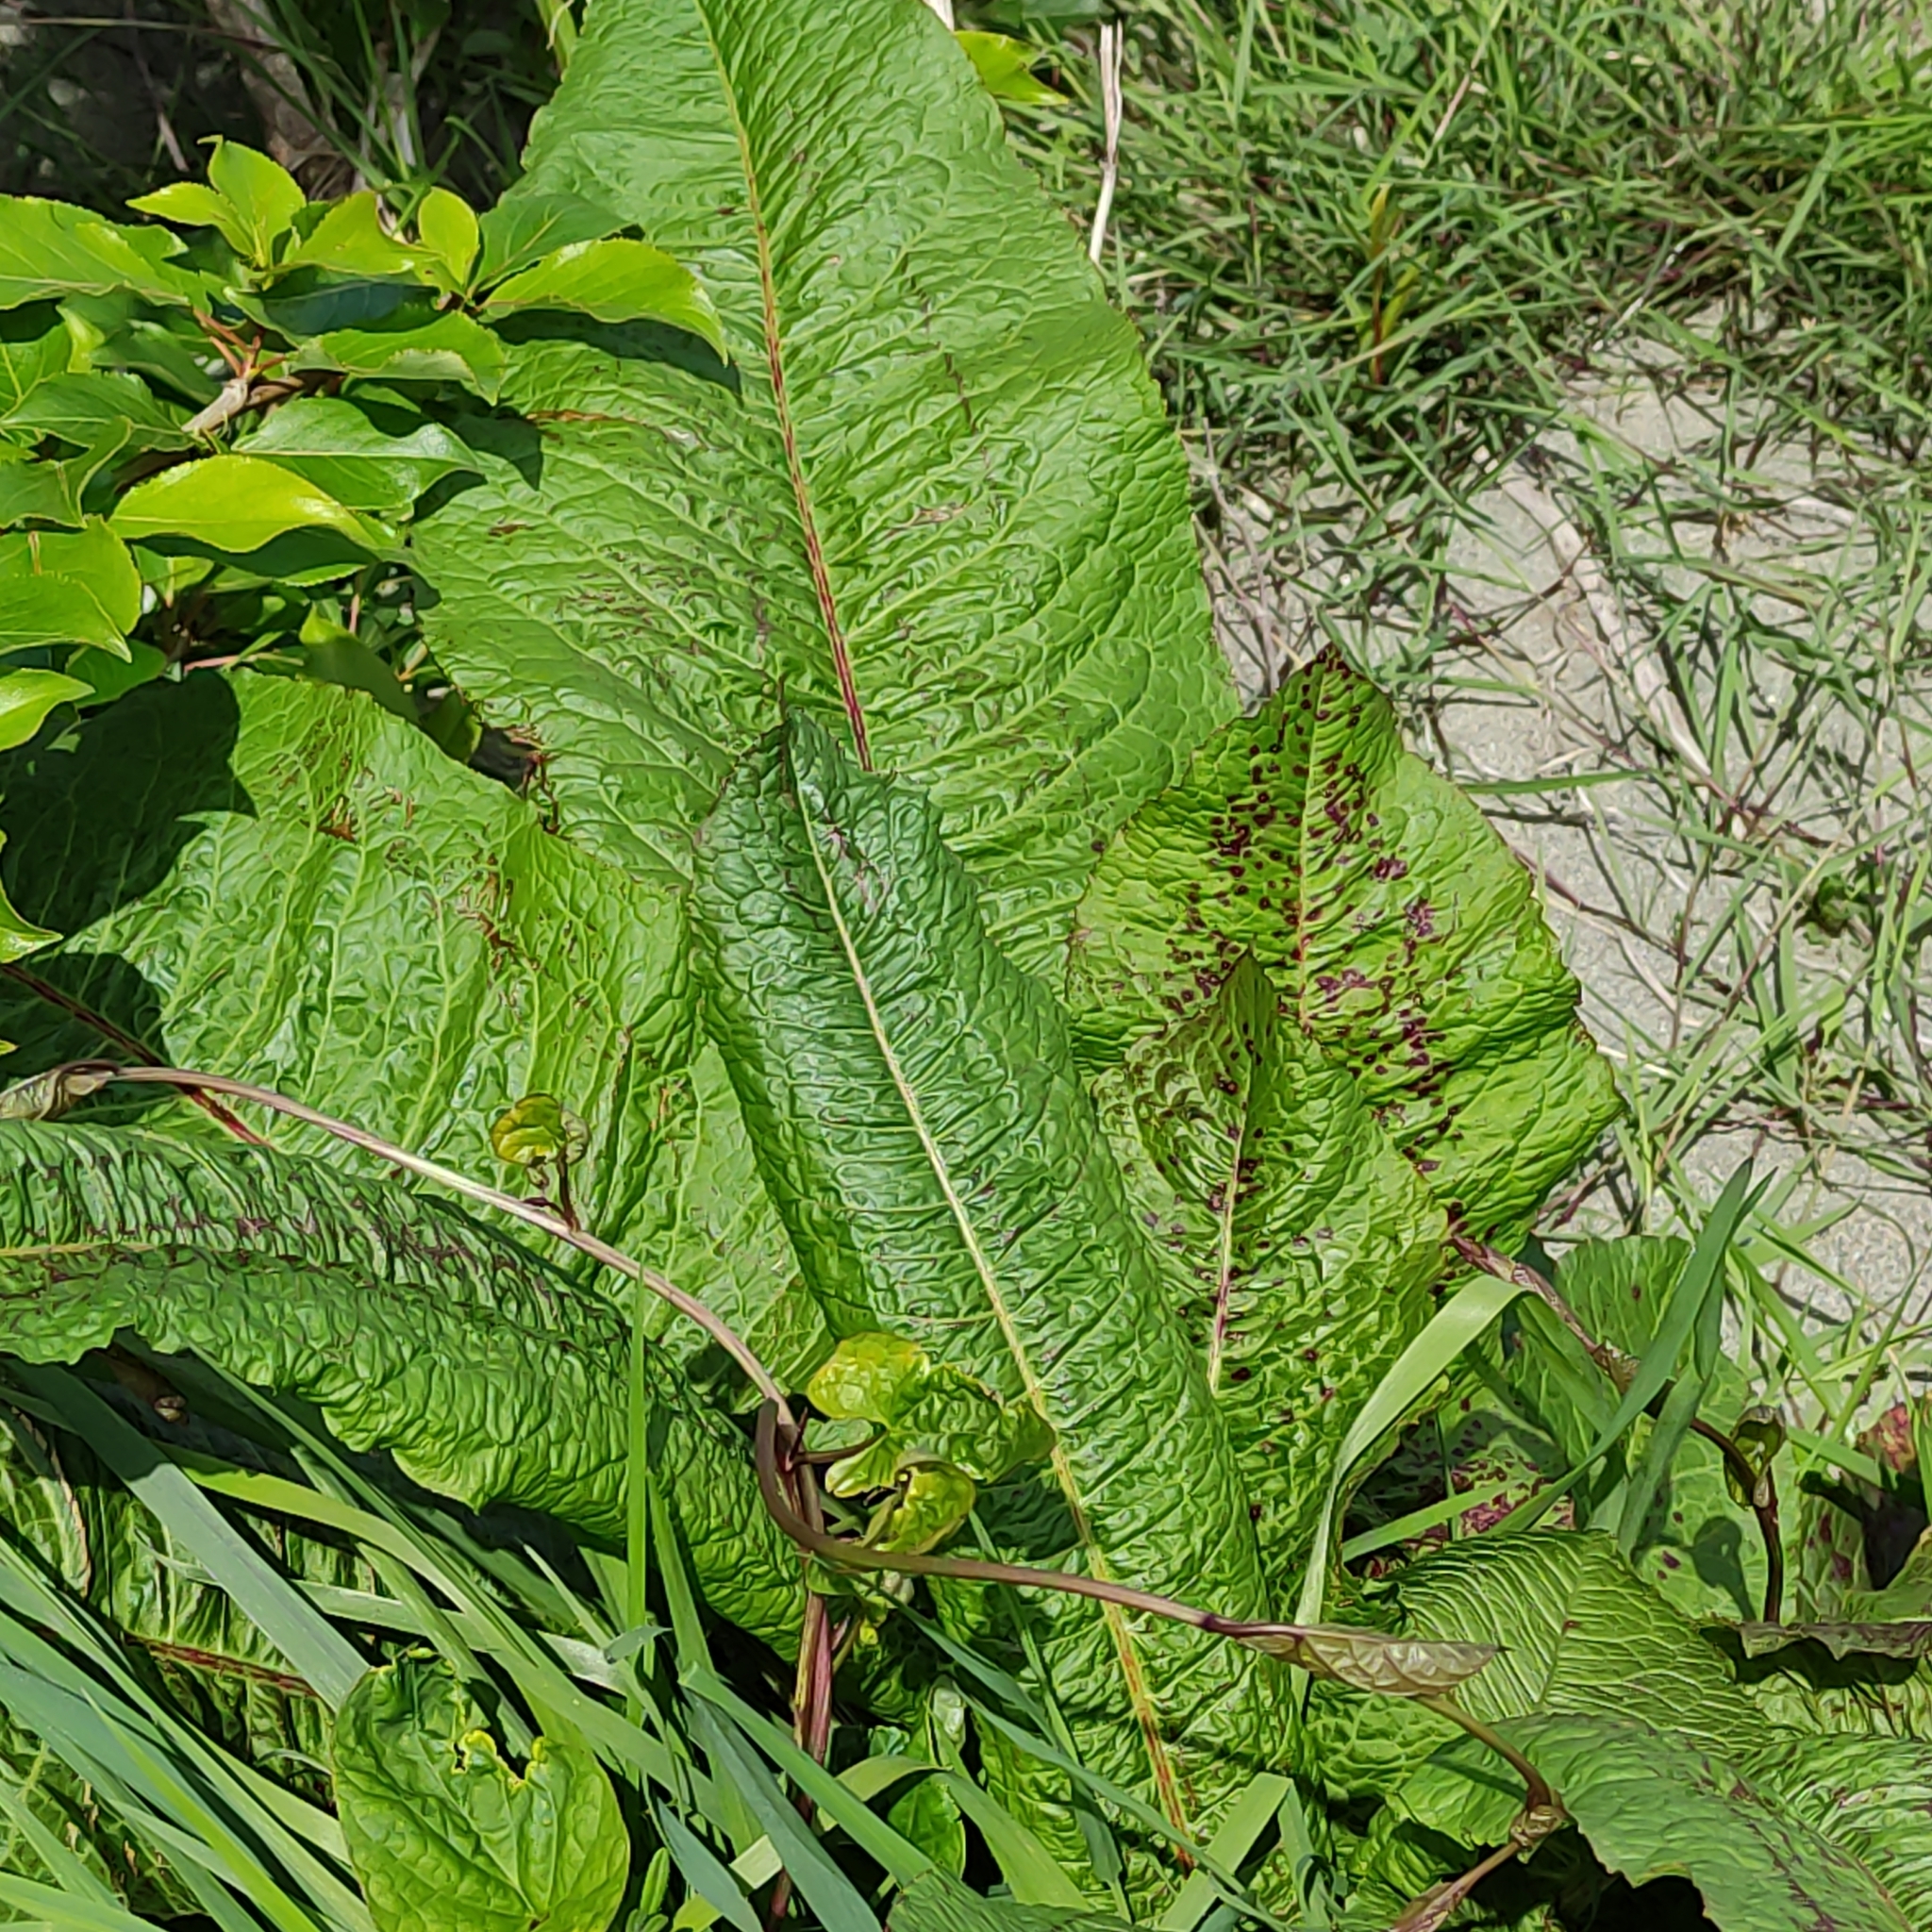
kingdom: Plantae
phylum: Tracheophyta
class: Magnoliopsida
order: Caryophyllales
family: Polygonaceae
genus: Rumex
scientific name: Rumex obtusifolius
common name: Bitter dock
